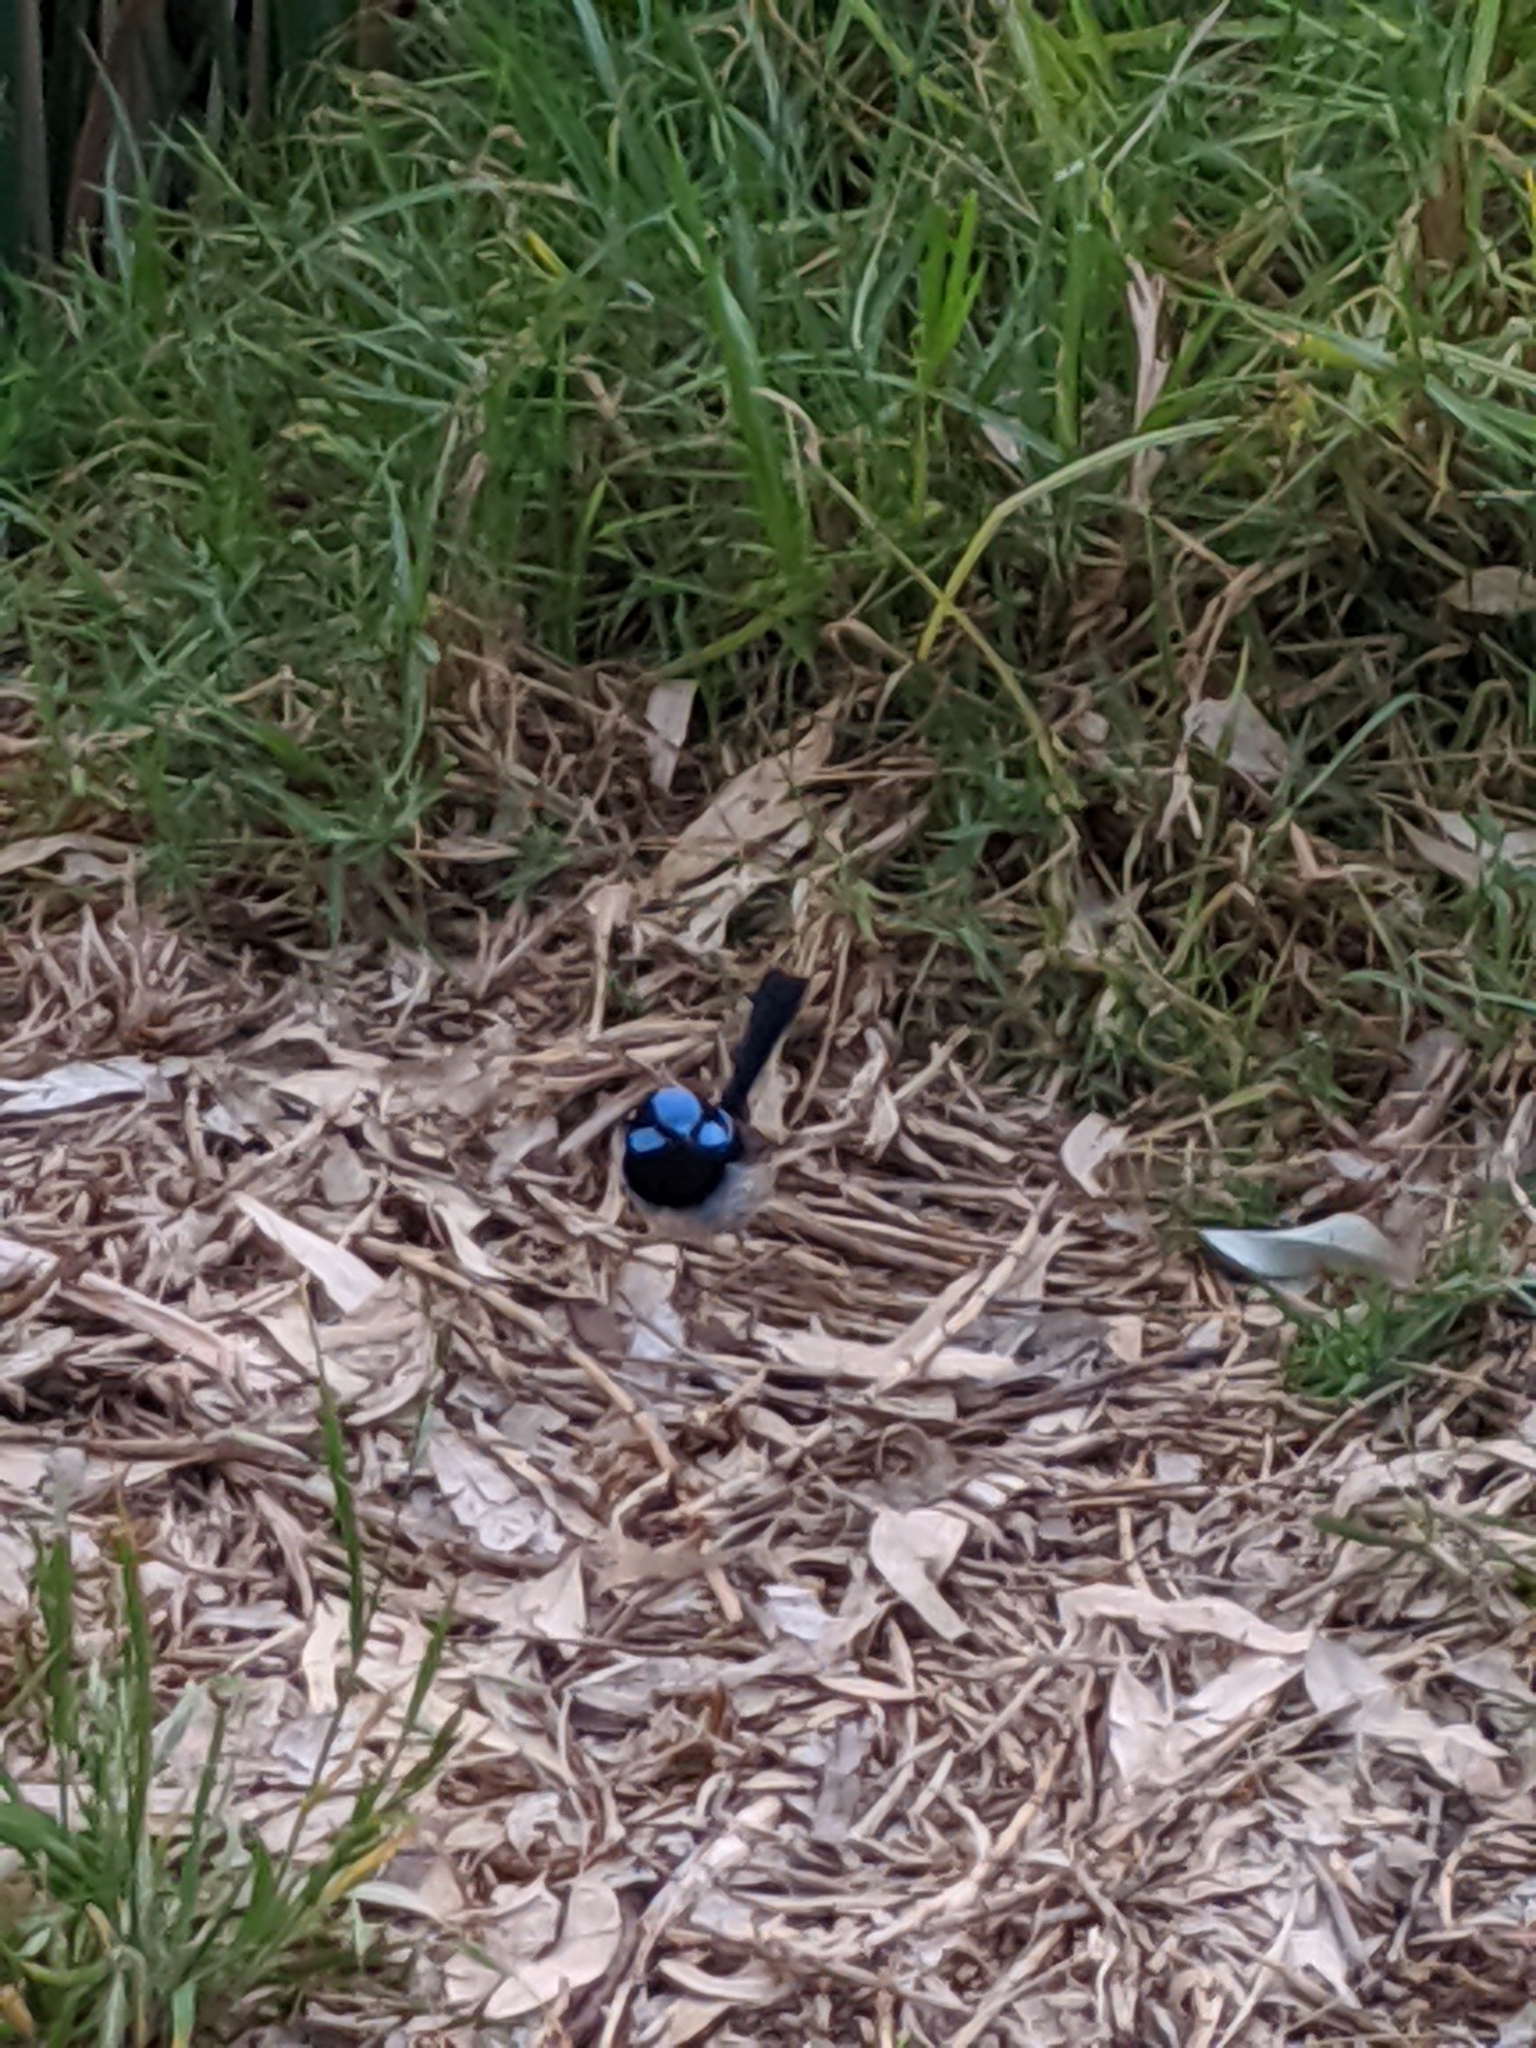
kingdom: Animalia
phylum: Chordata
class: Aves
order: Passeriformes
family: Maluridae
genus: Malurus
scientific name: Malurus cyaneus
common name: Superb fairywren
